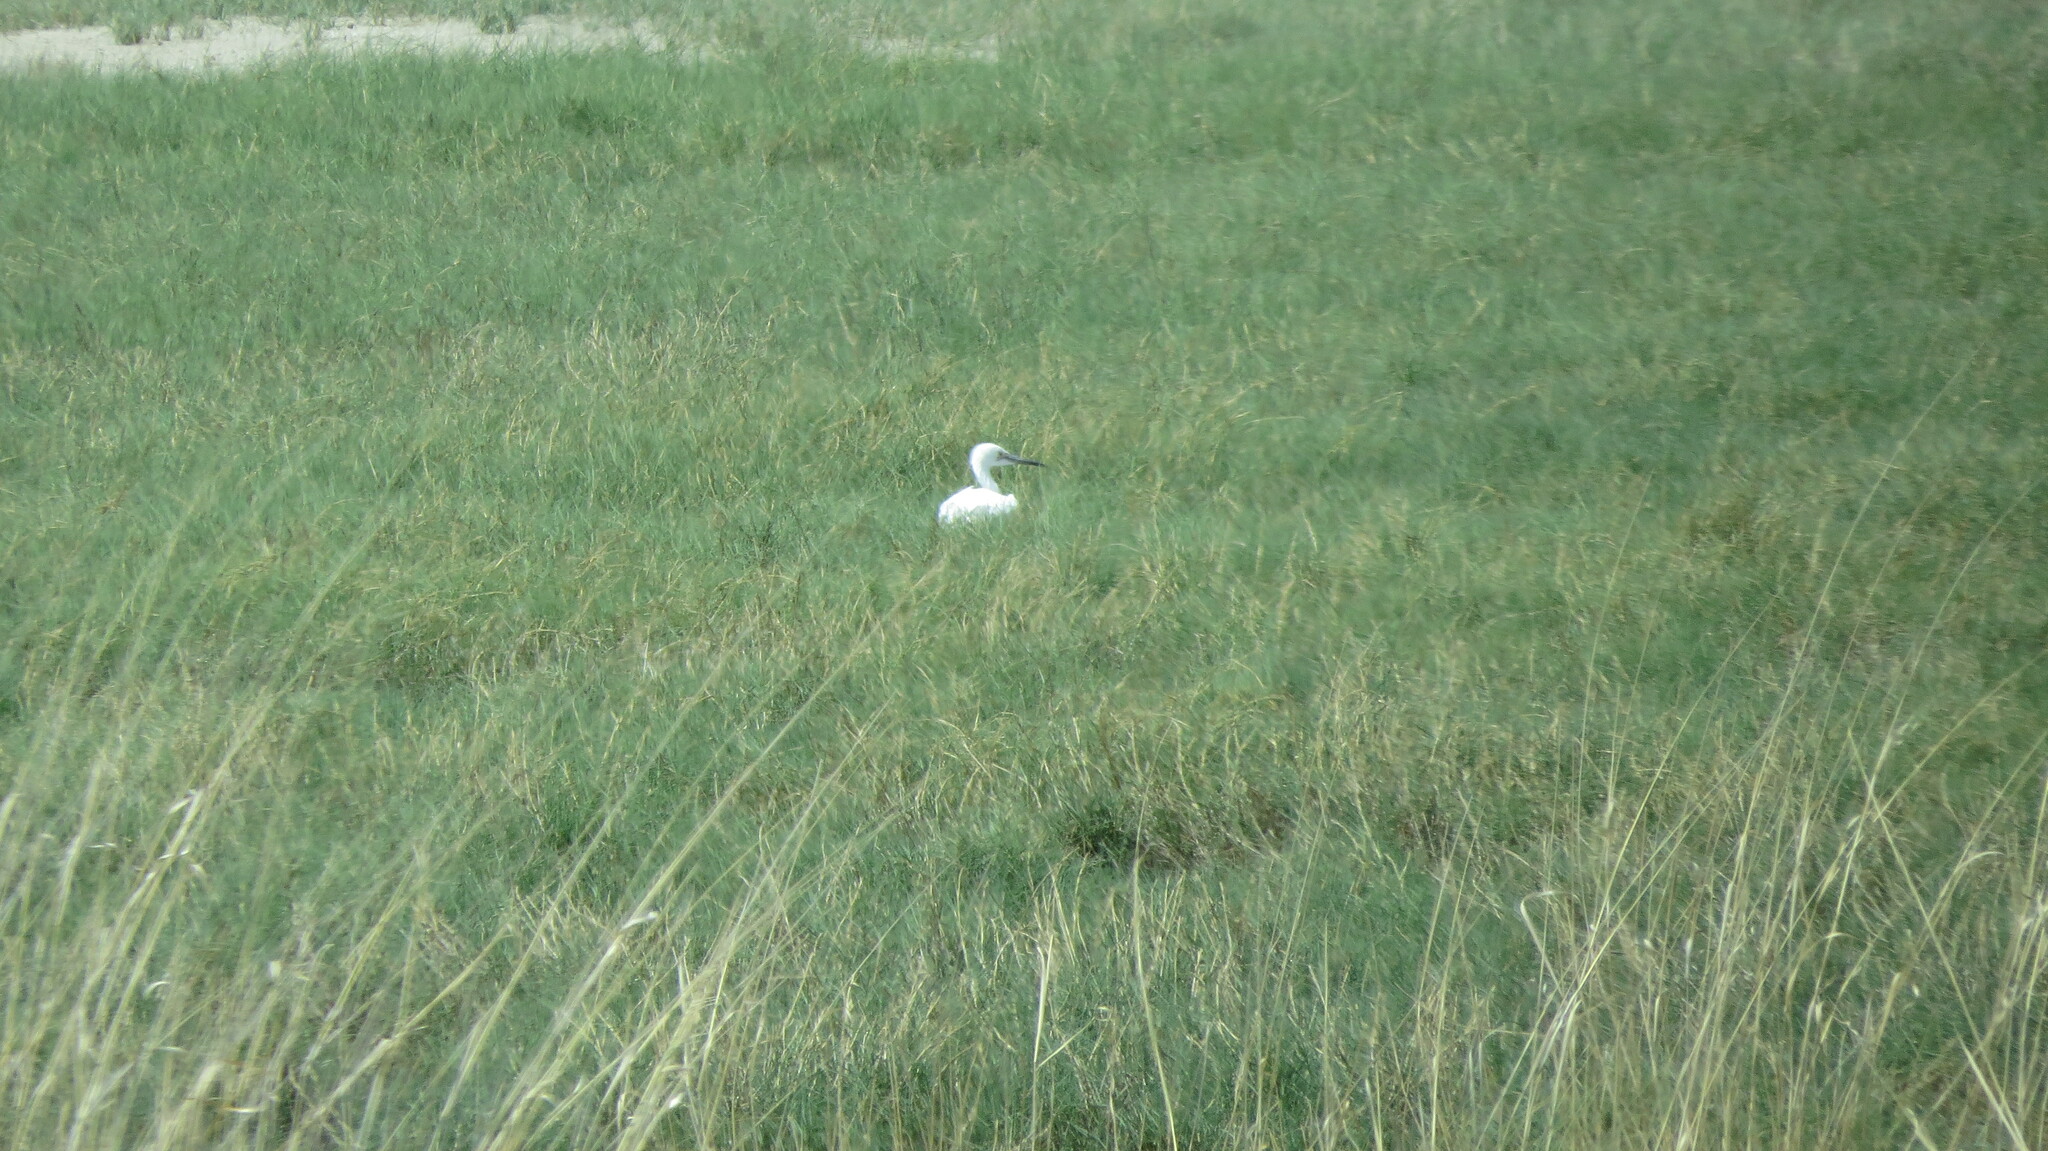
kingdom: Animalia
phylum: Chordata
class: Aves
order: Pelecaniformes
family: Ardeidae
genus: Egretta
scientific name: Egretta thula
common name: Snowy egret
